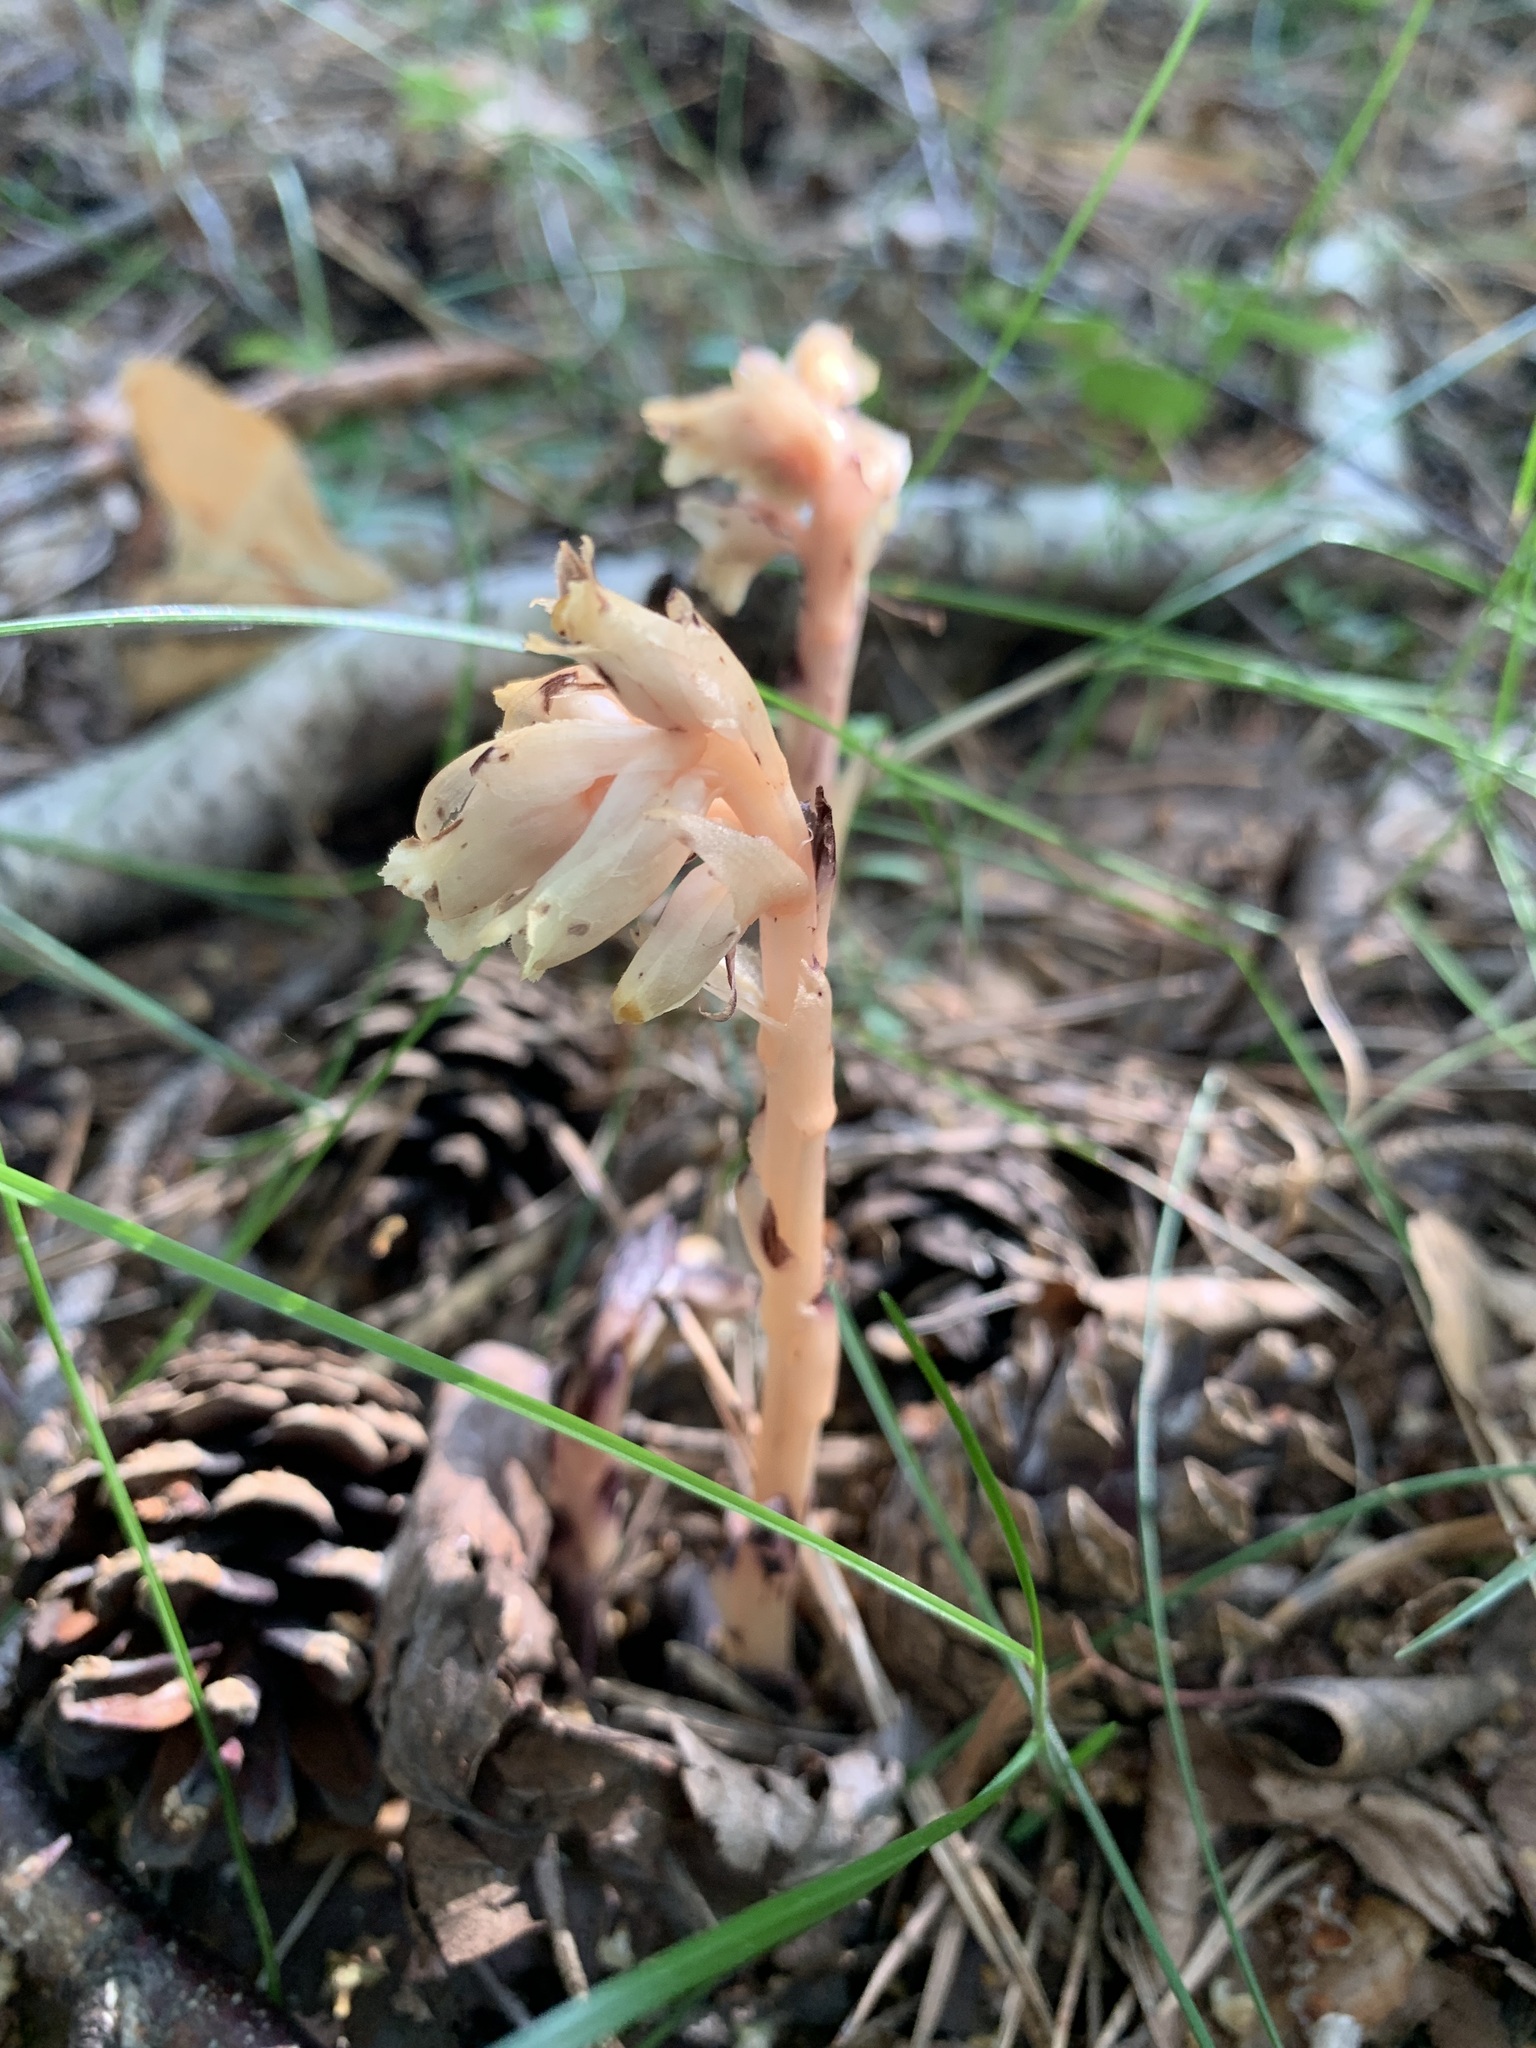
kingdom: Plantae
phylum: Tracheophyta
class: Magnoliopsida
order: Ericales
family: Ericaceae
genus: Hypopitys
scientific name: Hypopitys monotropa
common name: Yellow bird's-nest
